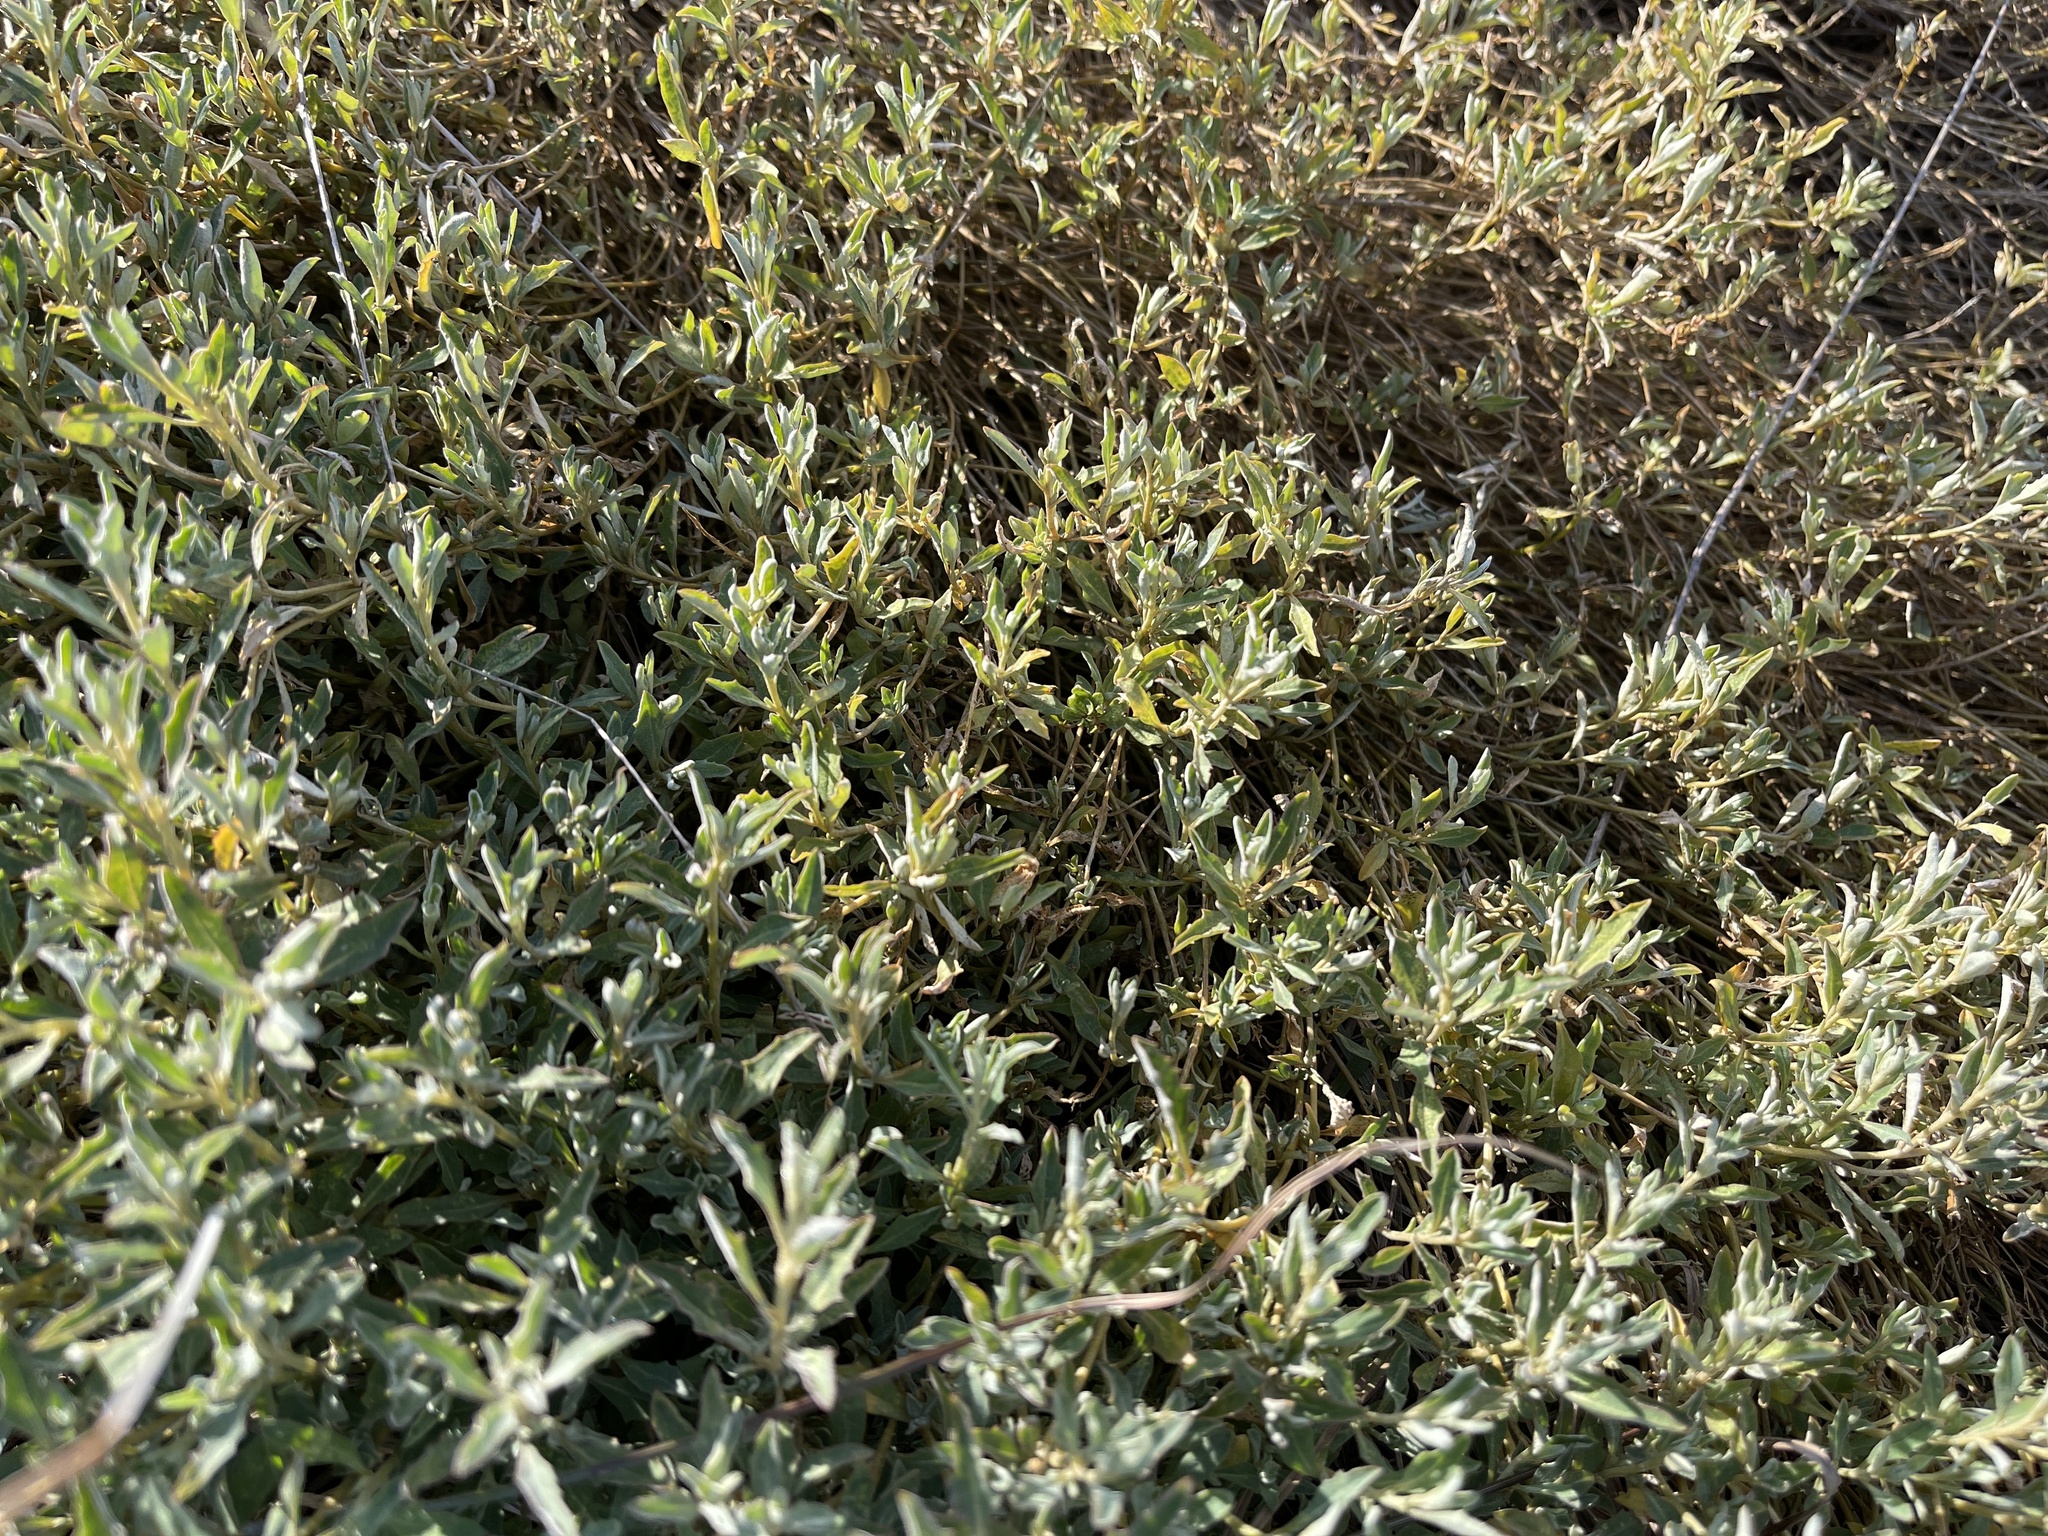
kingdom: Plantae
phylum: Tracheophyta
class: Magnoliopsida
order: Caryophyllales
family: Amaranthaceae
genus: Atriplex
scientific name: Atriplex semibaccata
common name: Australian saltbush
